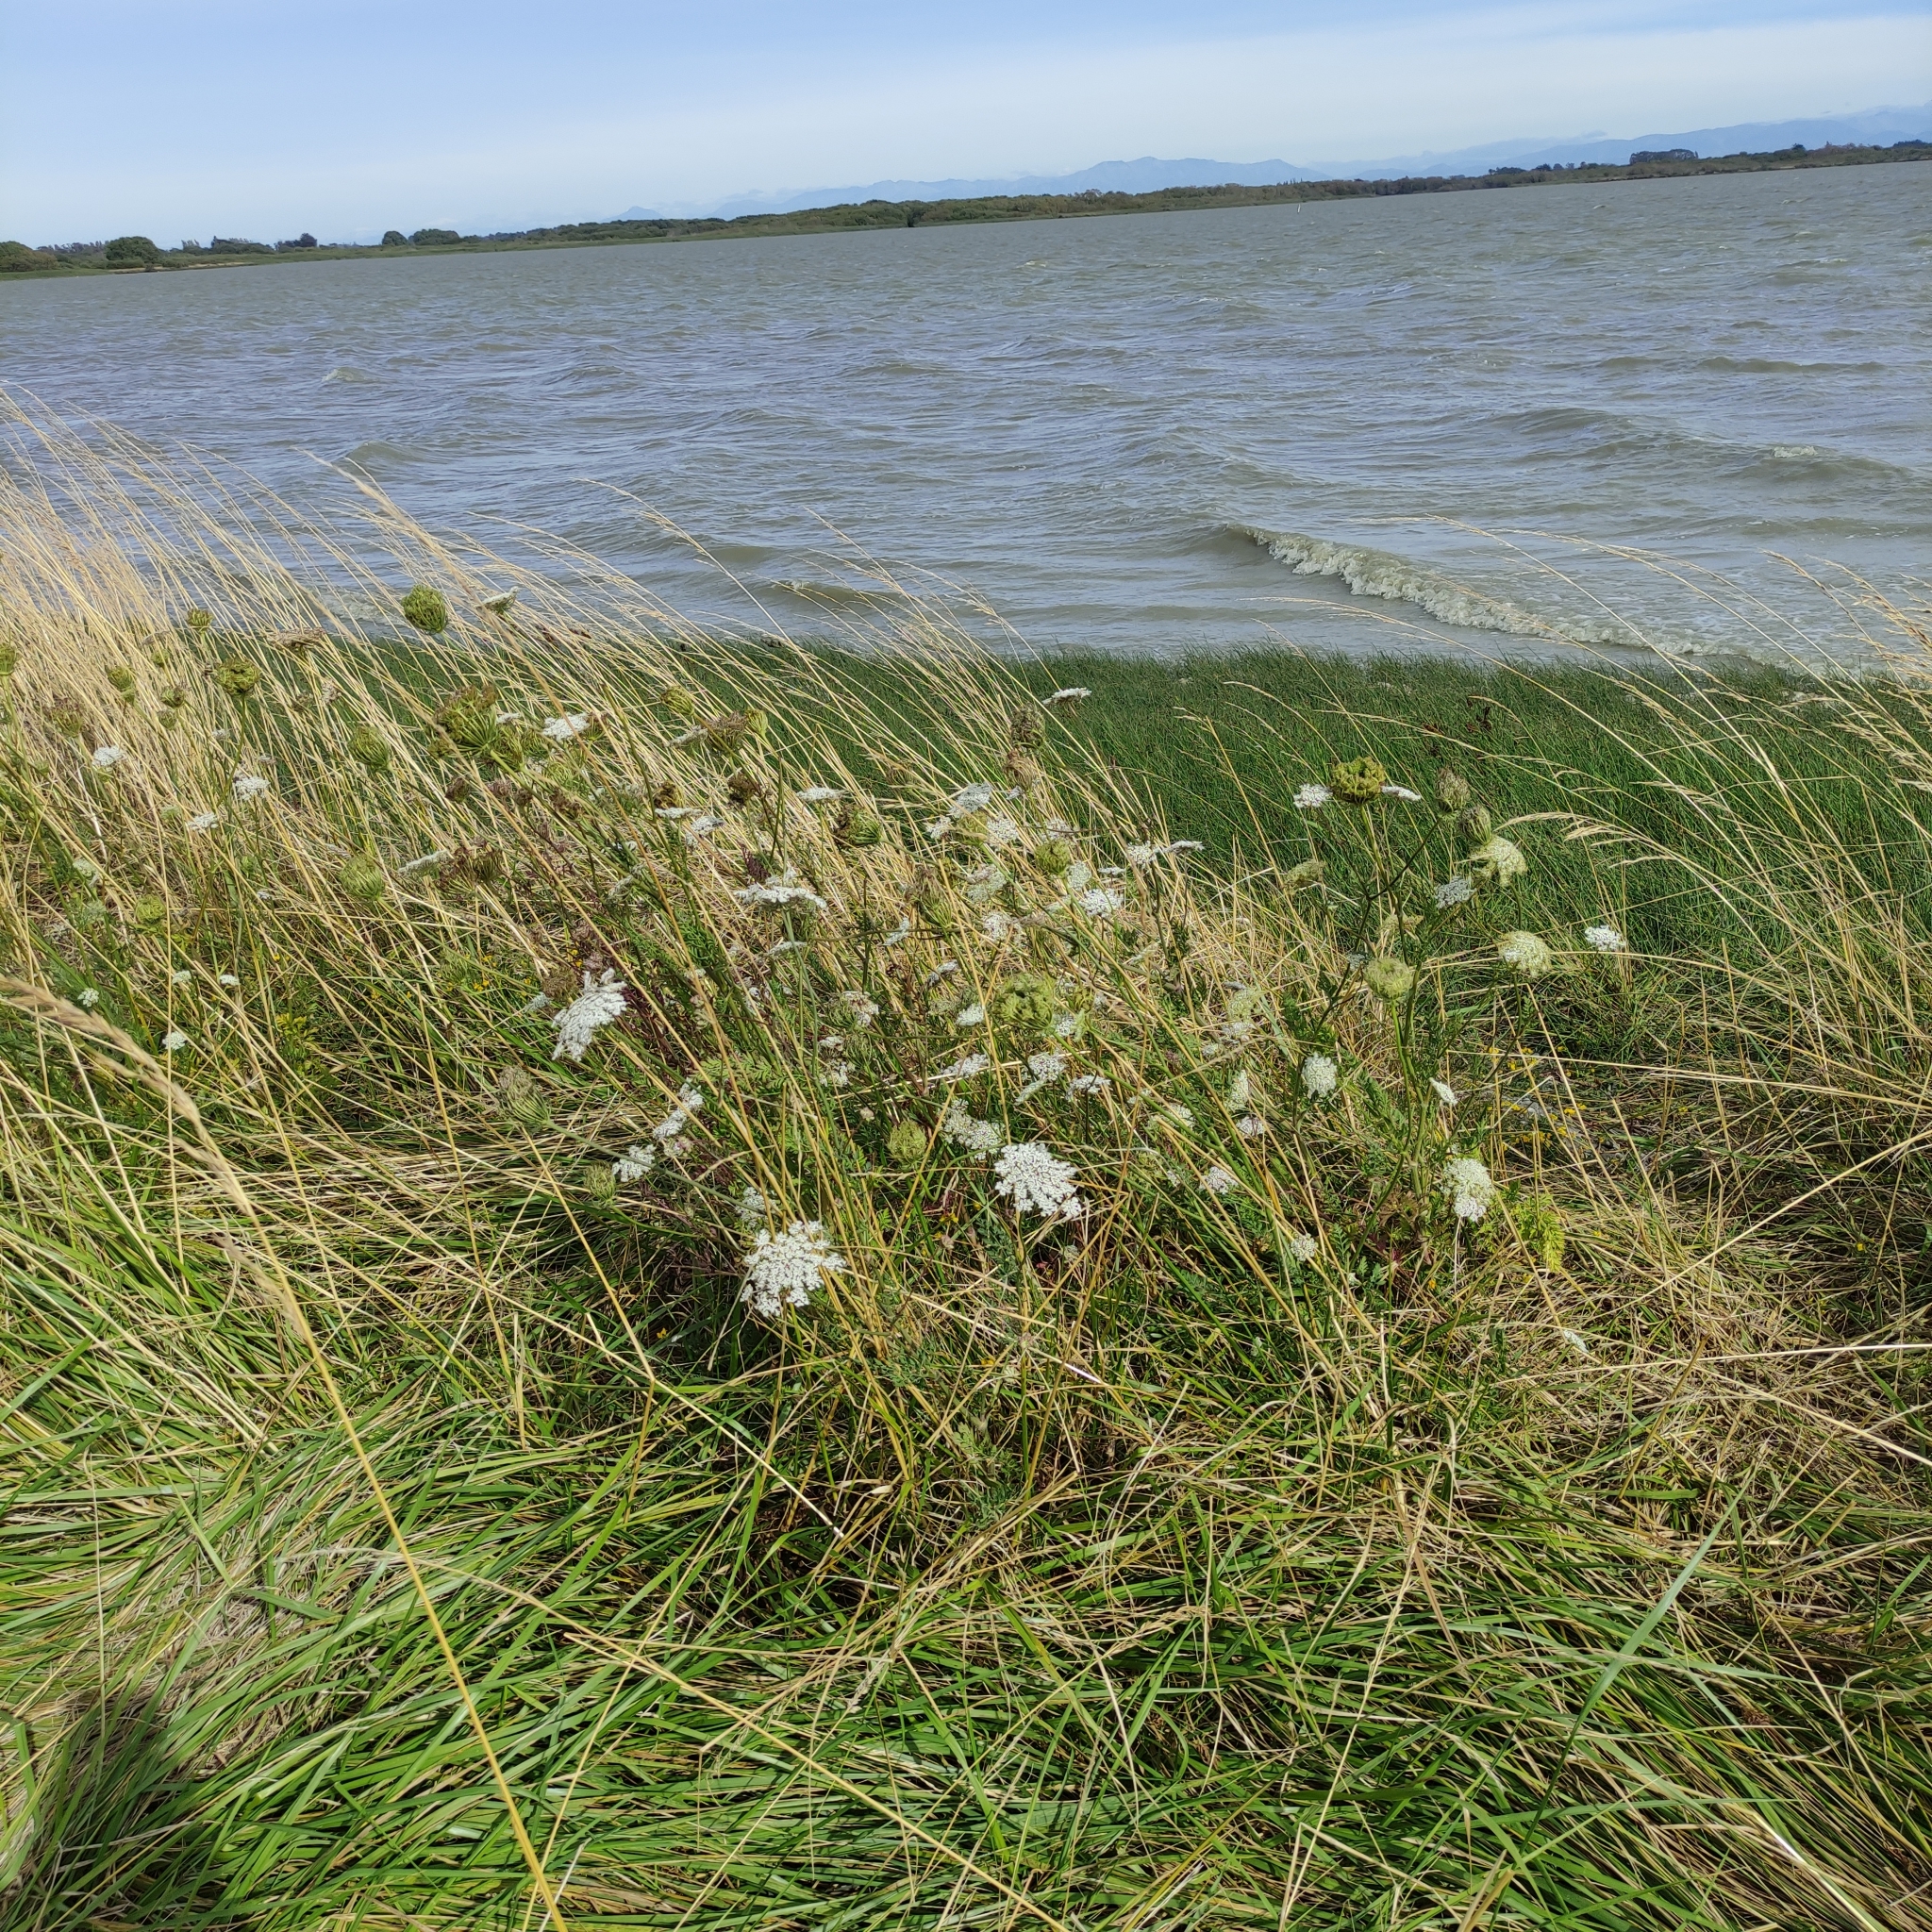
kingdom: Plantae
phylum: Tracheophyta
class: Magnoliopsida
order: Apiales
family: Apiaceae
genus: Daucus
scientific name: Daucus carota
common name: Wild carrot
